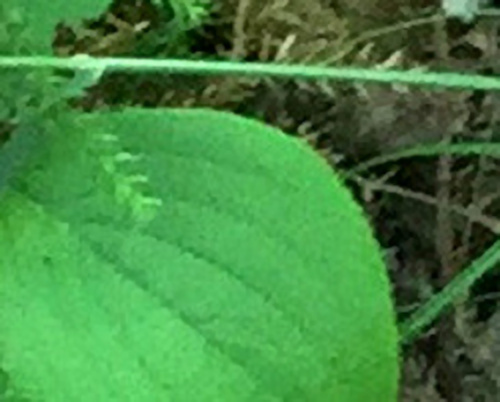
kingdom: Plantae
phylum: Tracheophyta
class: Magnoliopsida
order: Cornales
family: Cornaceae
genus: Cornus
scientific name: Cornus canadensis
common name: Creeping dogwood
